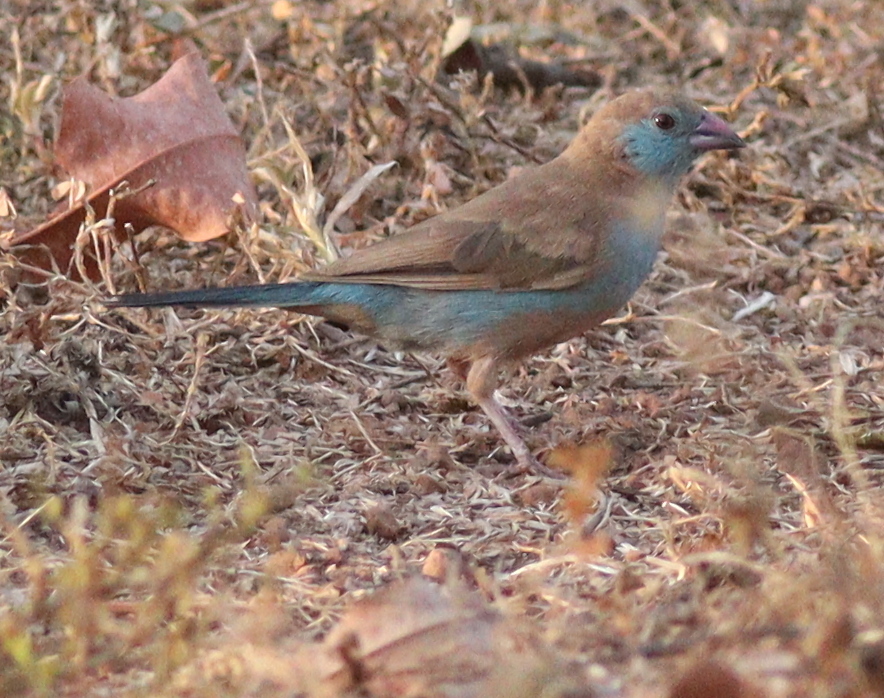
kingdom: Animalia
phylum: Chordata
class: Aves
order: Passeriformes
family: Estrildidae
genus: Uraeginthus
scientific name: Uraeginthus bengalus
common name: Red-cheeked cordon-bleu
